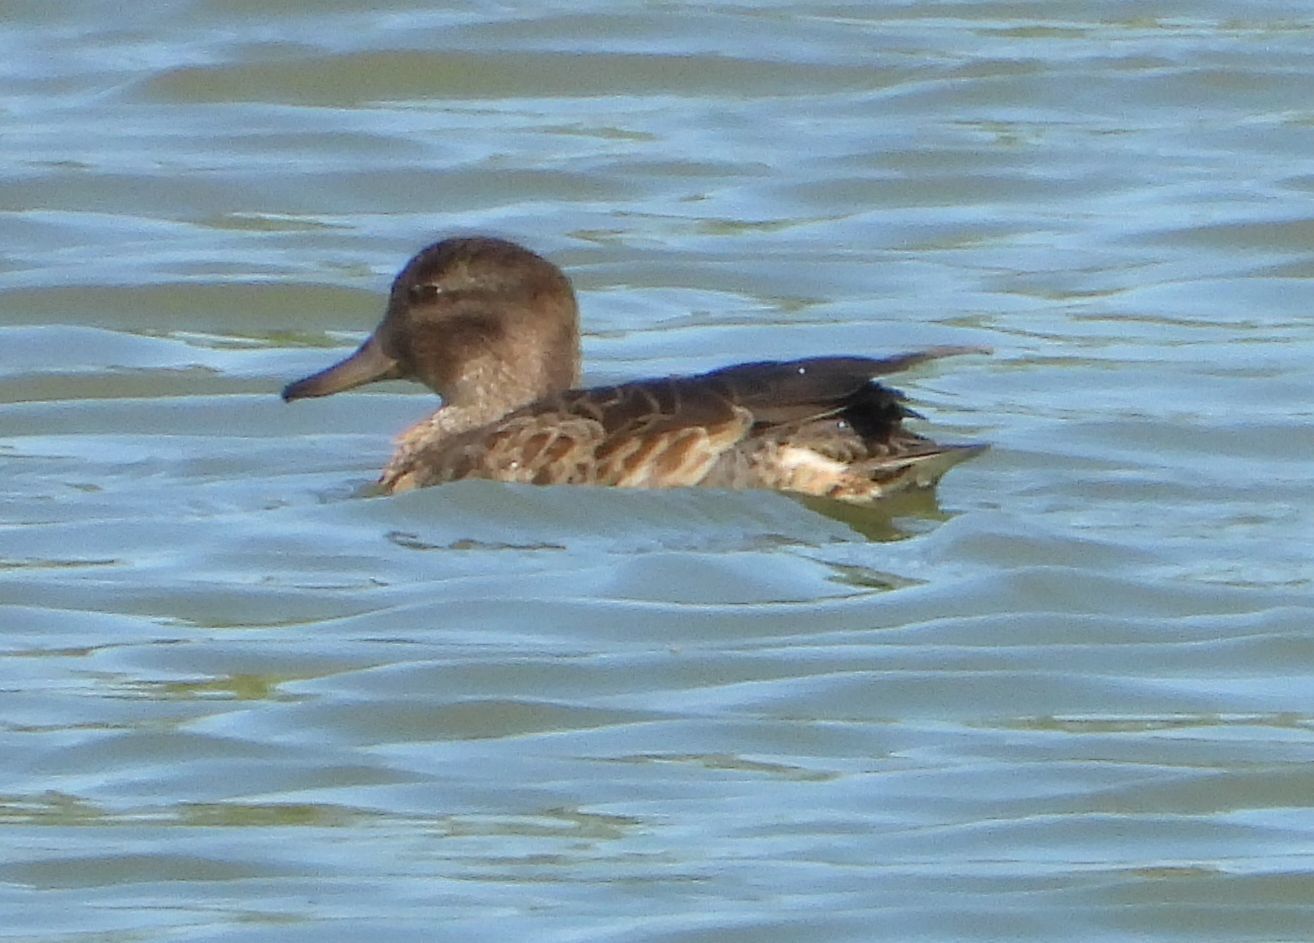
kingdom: Animalia
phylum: Chordata
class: Aves
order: Anseriformes
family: Anatidae
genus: Anas
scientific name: Anas crecca
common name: Eurasian teal
